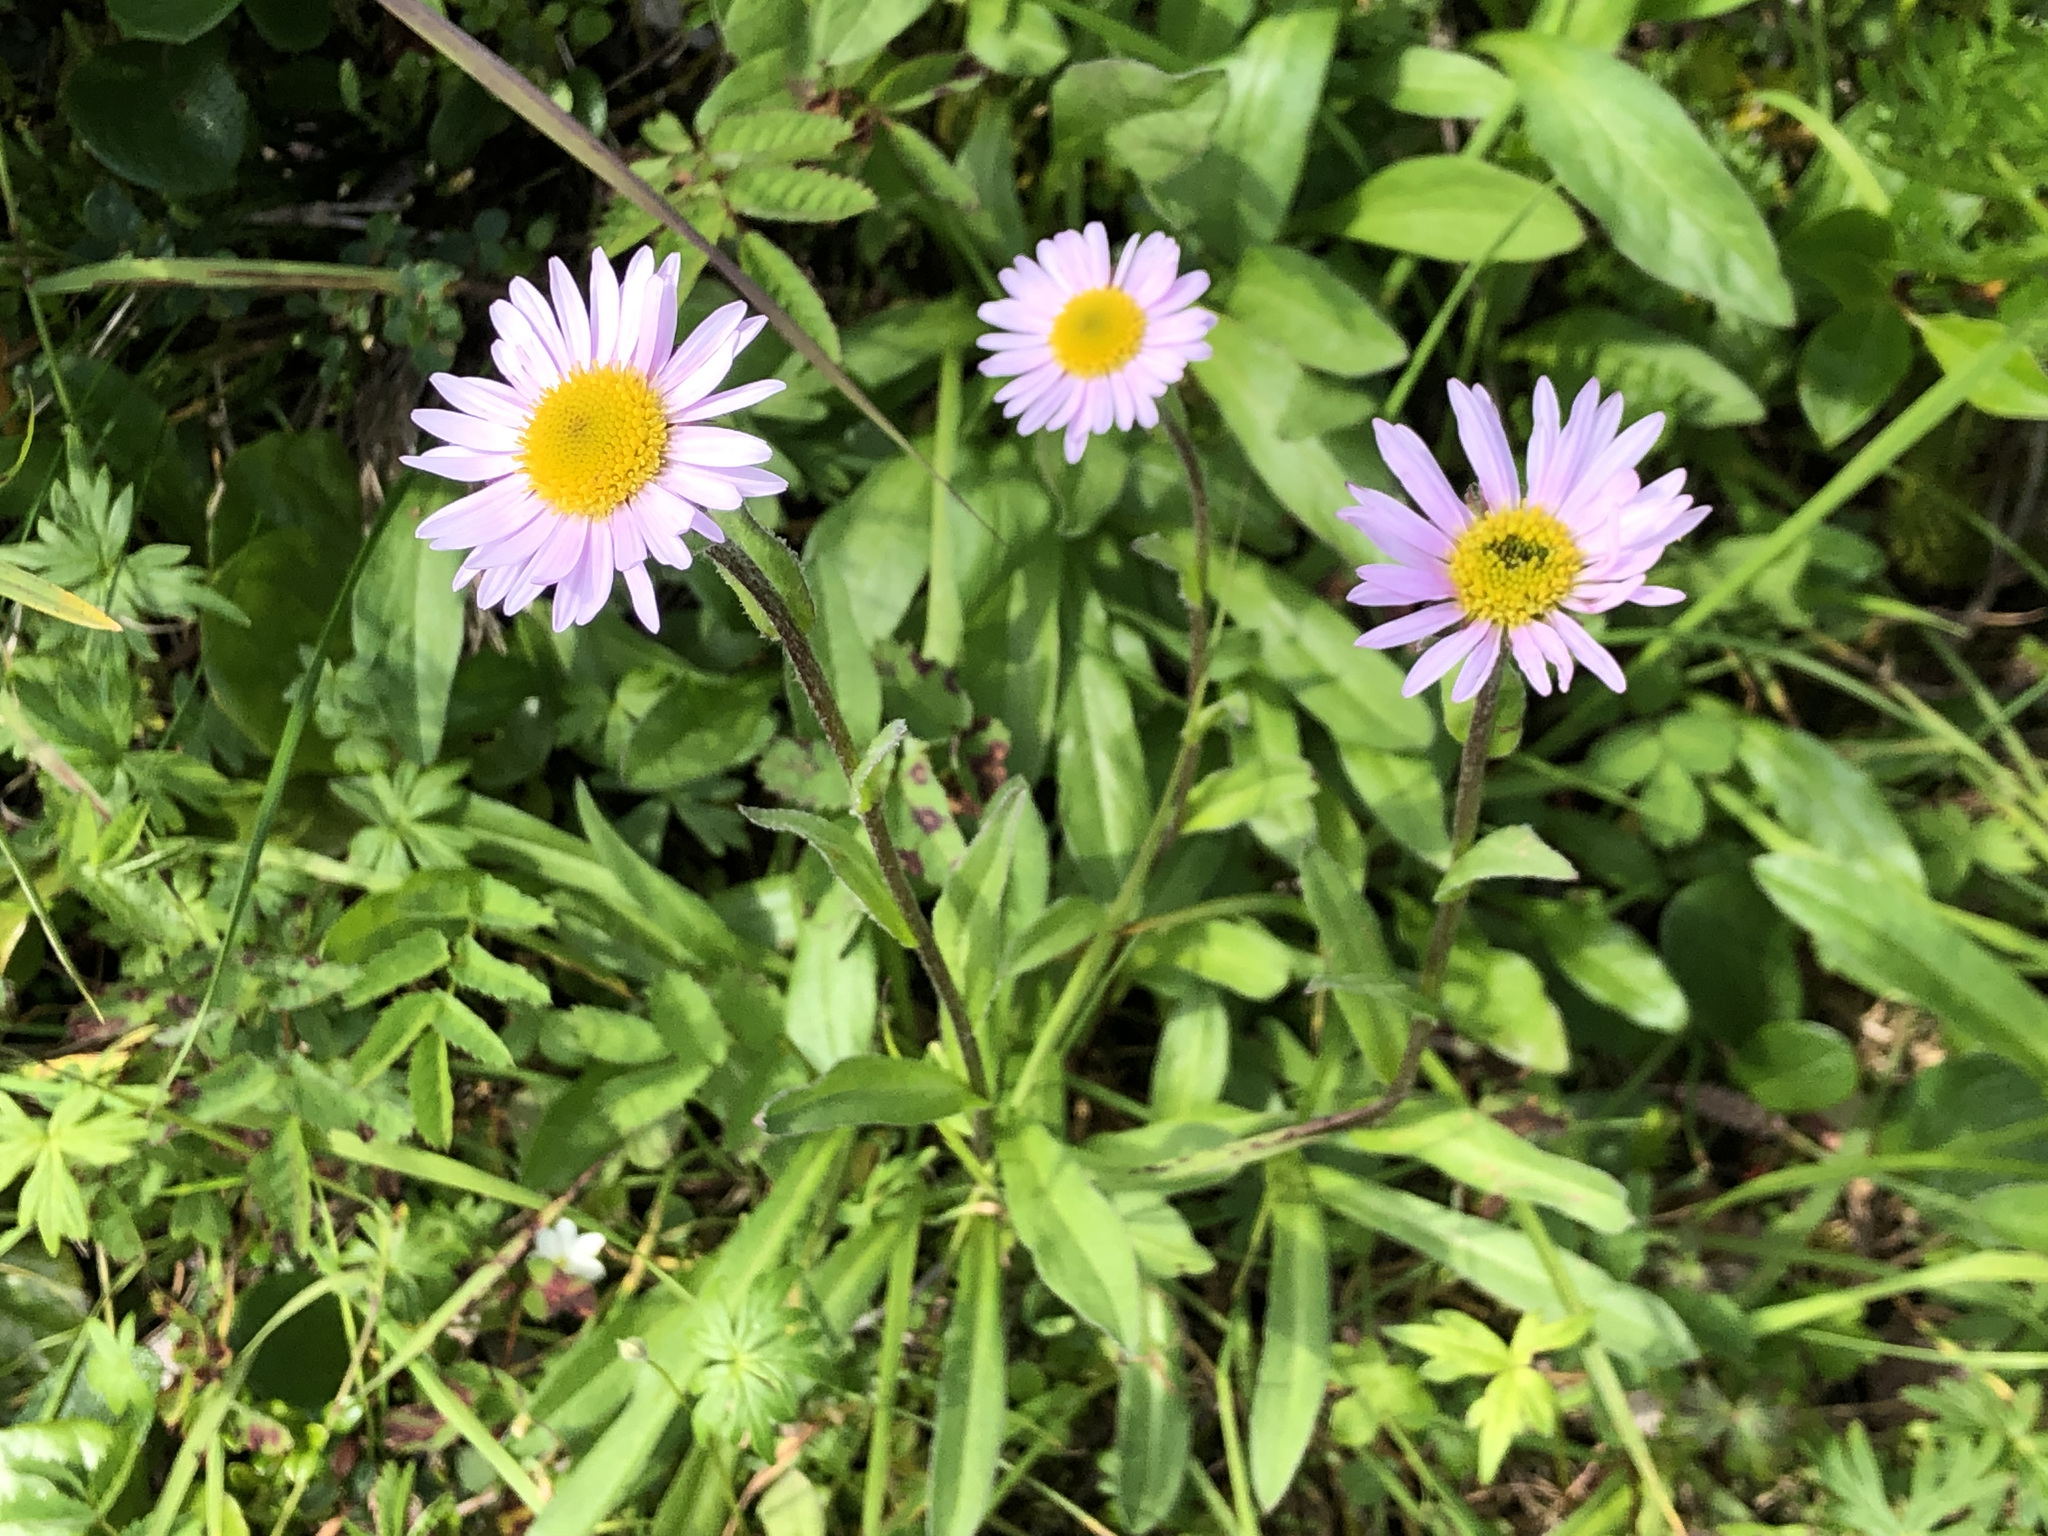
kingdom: Plantae
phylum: Tracheophyta
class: Magnoliopsida
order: Asterales
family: Asteraceae
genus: Erigeron
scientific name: Erigeron peregrinus
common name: Peregrine fleabane
